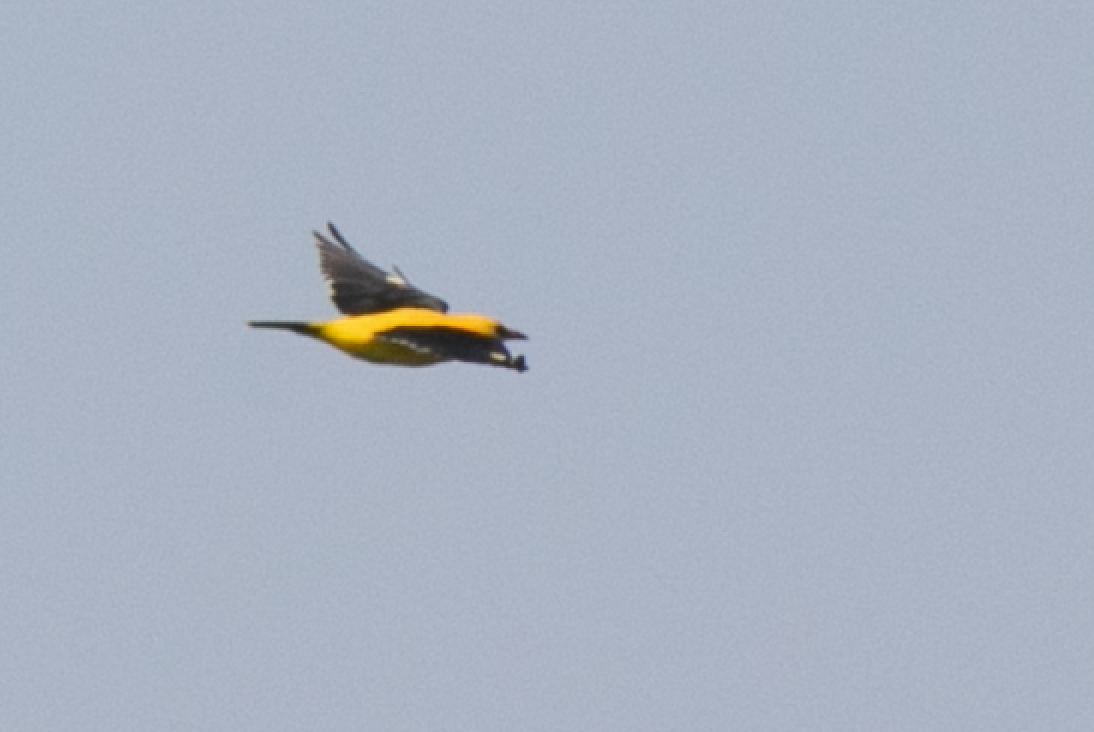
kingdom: Animalia
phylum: Chordata
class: Aves
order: Passeriformes
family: Oriolidae
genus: Oriolus
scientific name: Oriolus oriolus
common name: Eurasian golden oriole
